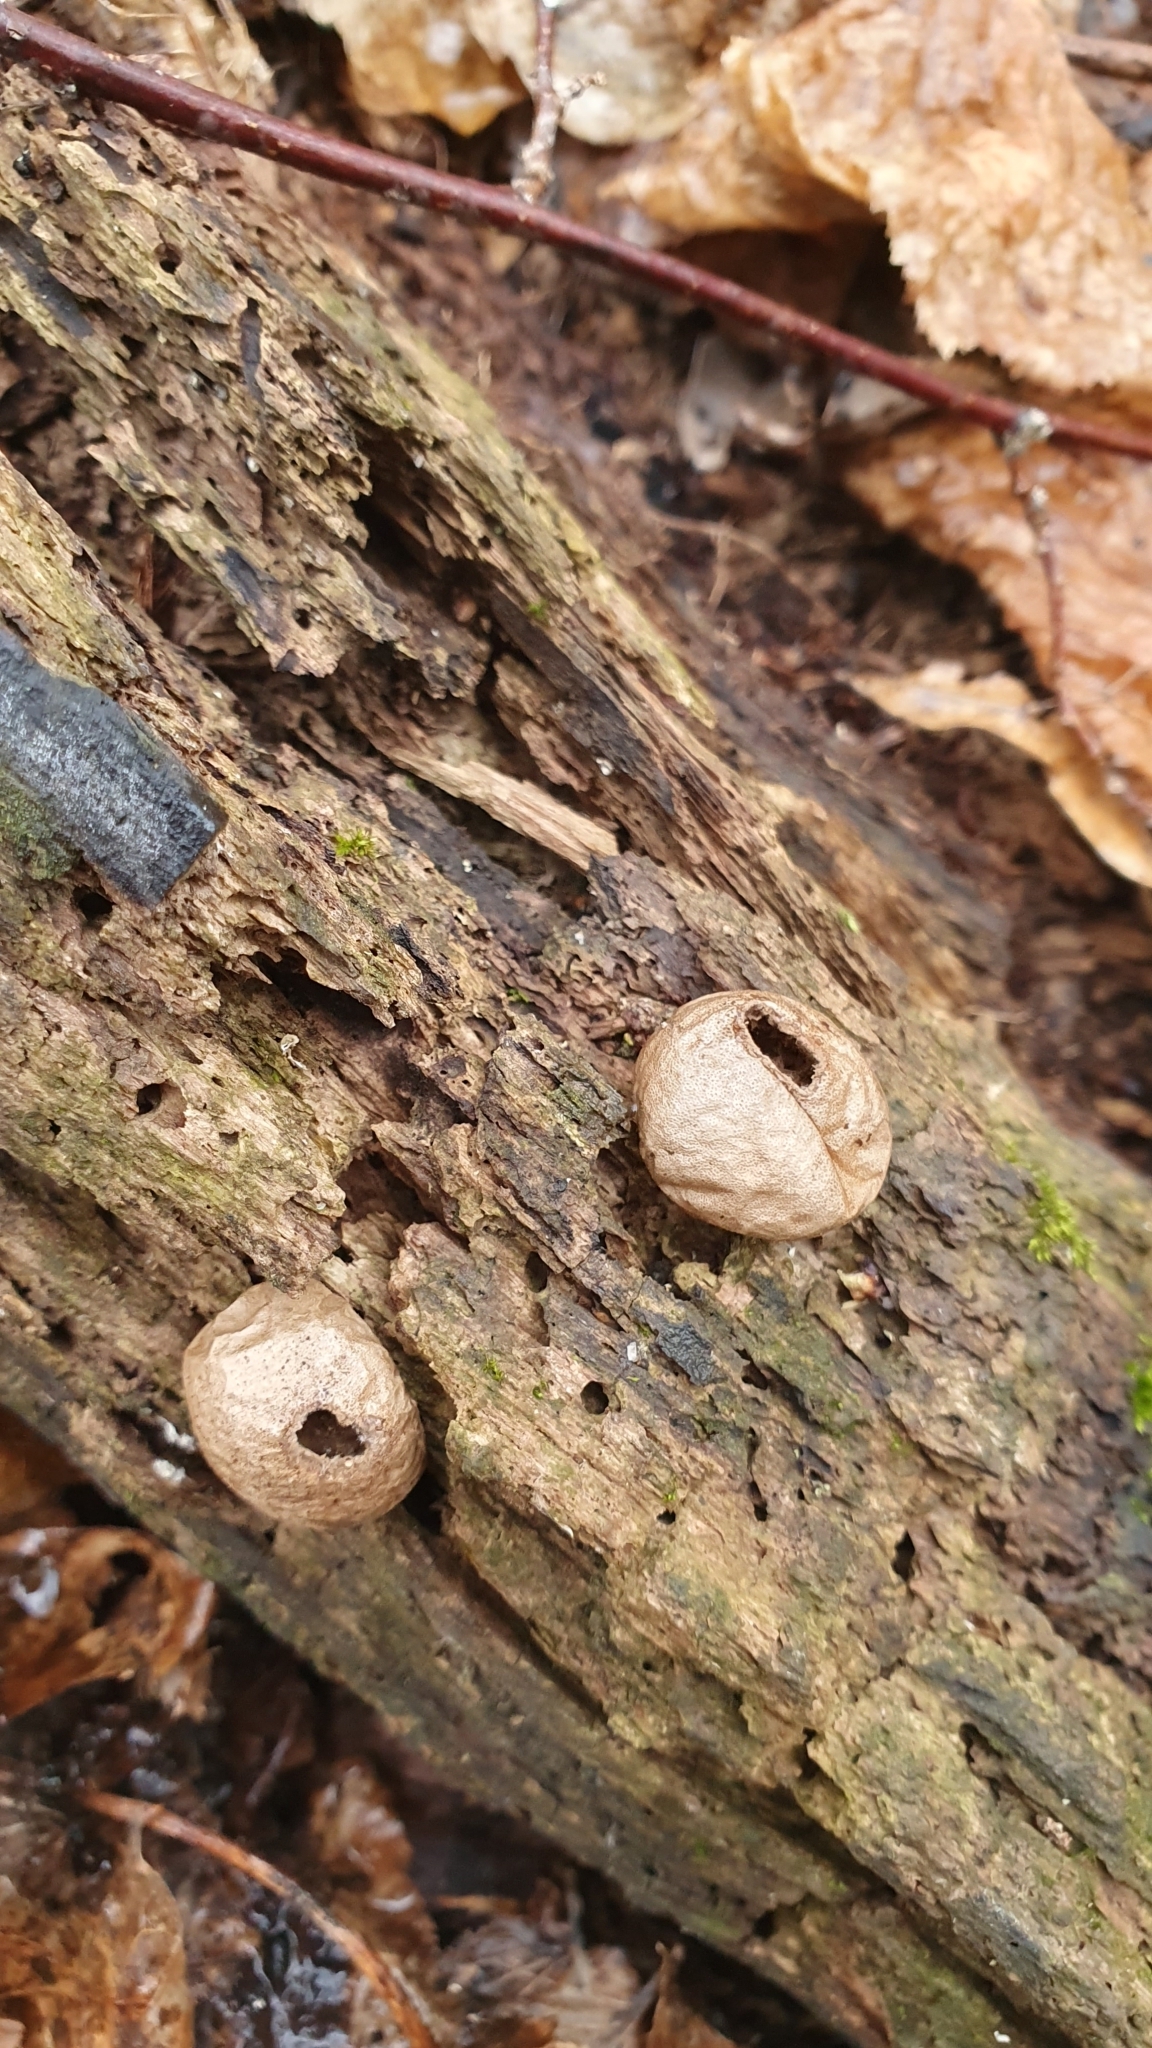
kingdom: Fungi
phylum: Basidiomycota
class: Agaricomycetes
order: Agaricales
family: Lycoperdaceae
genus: Apioperdon
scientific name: Apioperdon pyriforme
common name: Pear-shaped puffball
